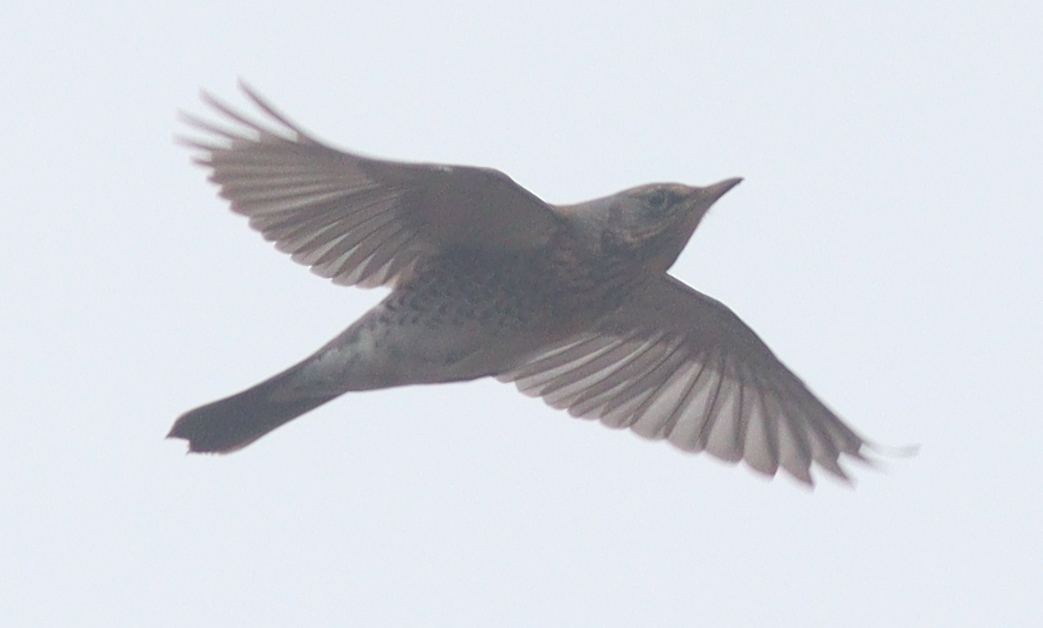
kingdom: Animalia
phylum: Chordata
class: Aves
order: Passeriformes
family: Turdidae
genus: Turdus
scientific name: Turdus pilaris
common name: Fieldfare
